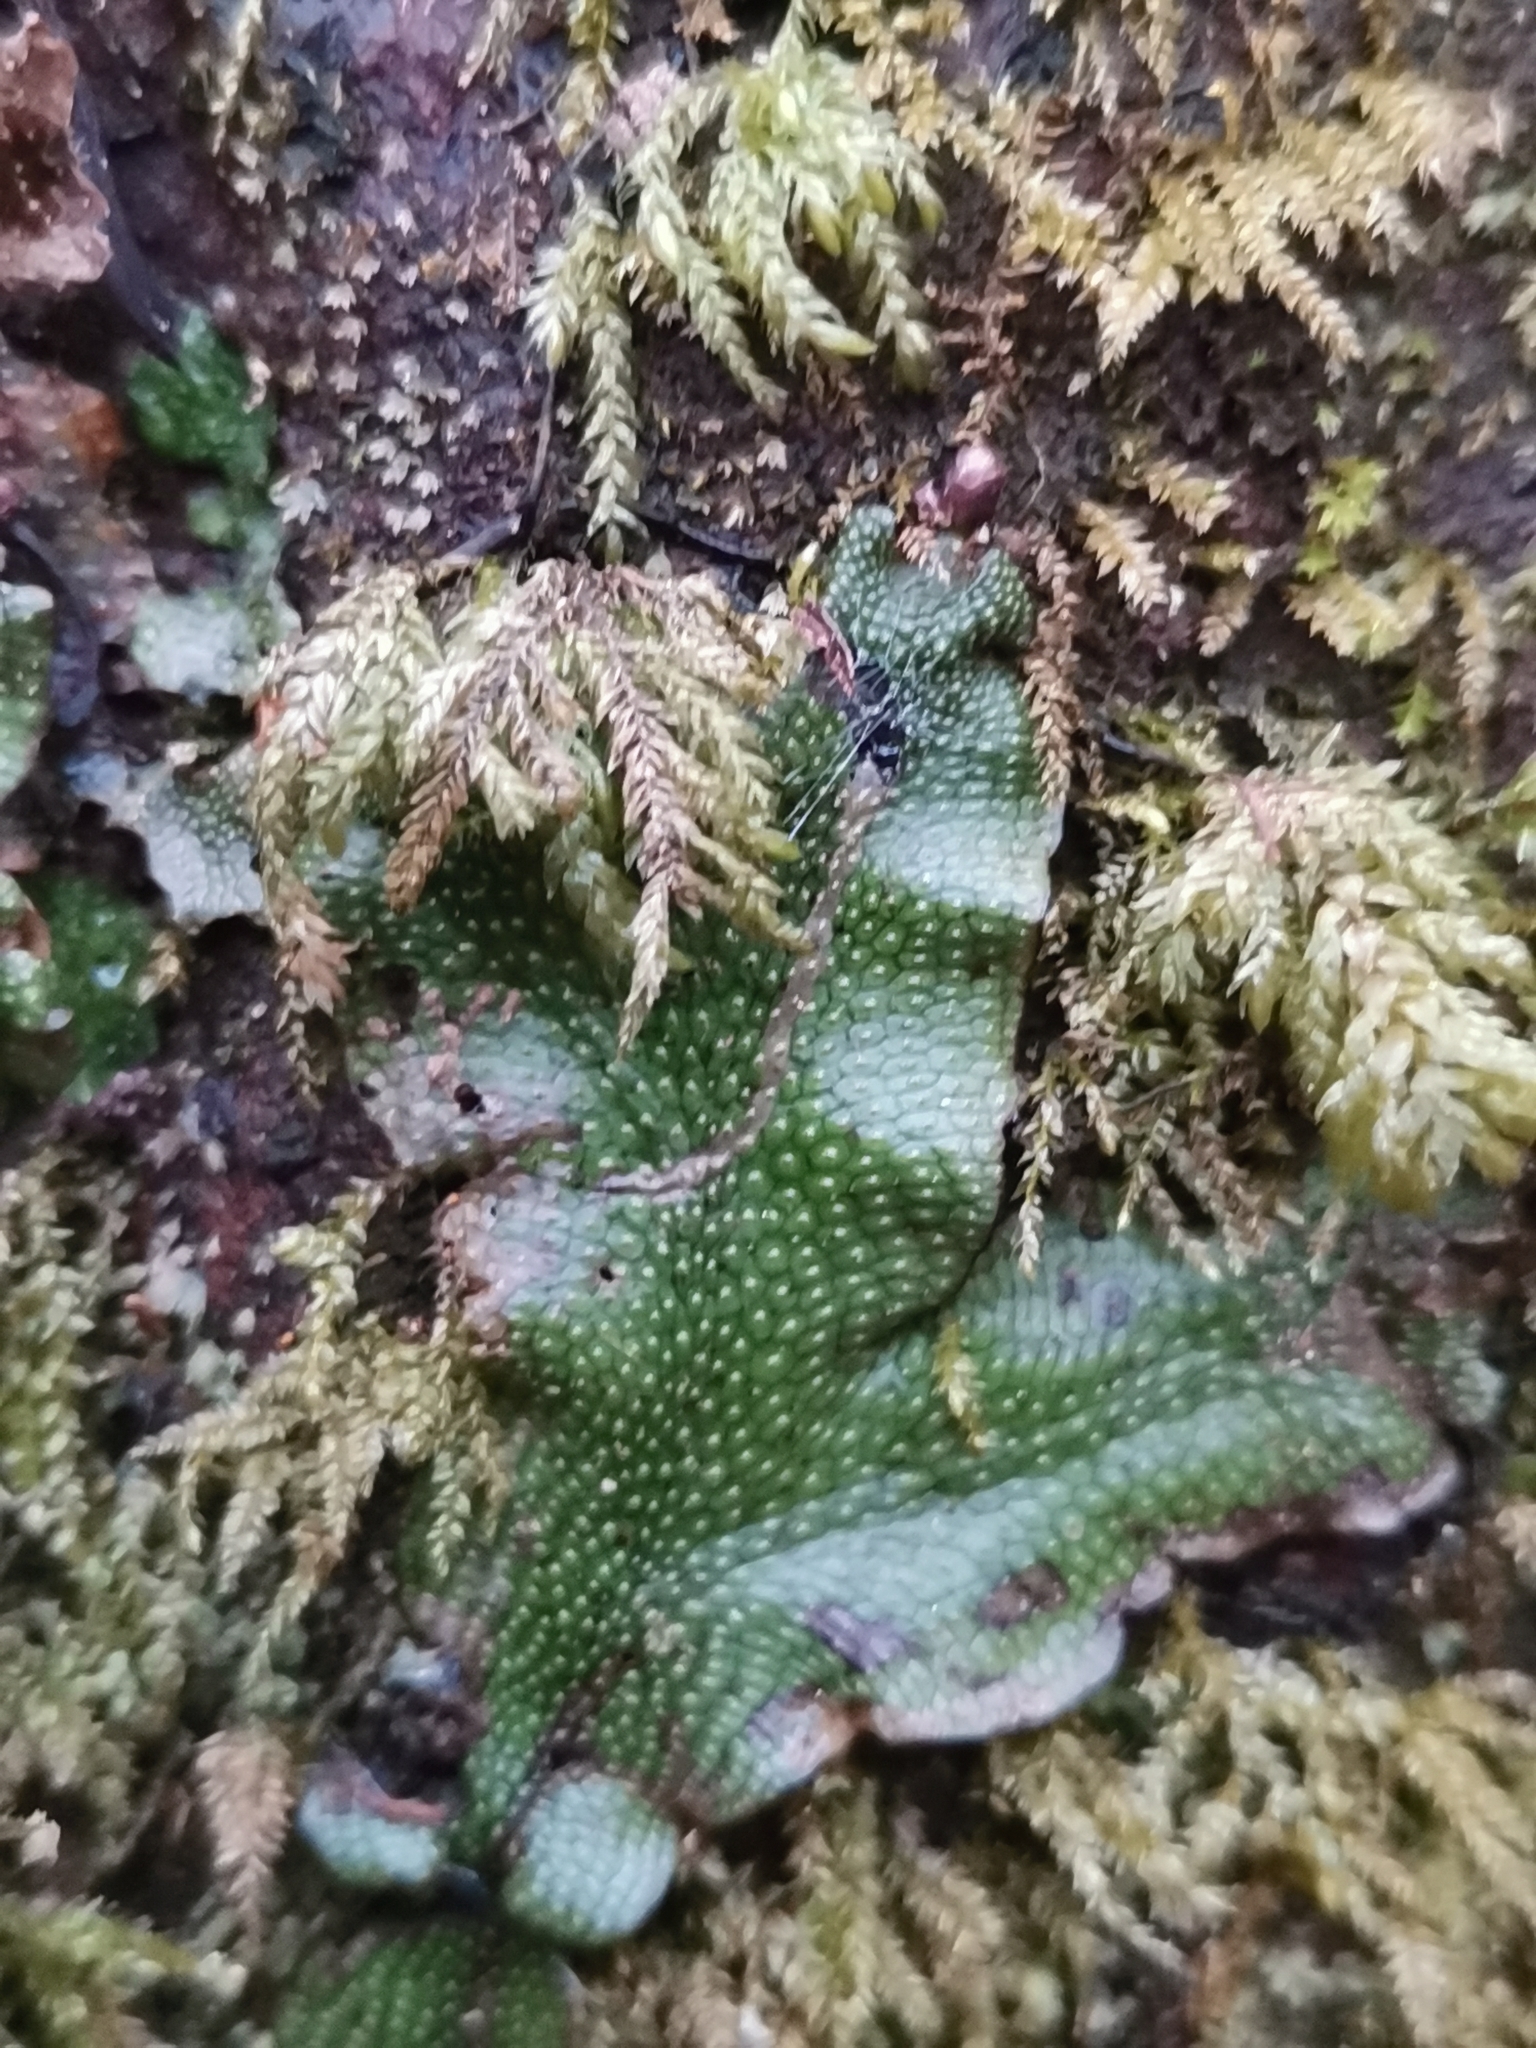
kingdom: Plantae
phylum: Marchantiophyta
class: Marchantiopsida
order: Marchantiales
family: Conocephalaceae
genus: Conocephalum
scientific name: Conocephalum conicum
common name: Great scented liverwort
